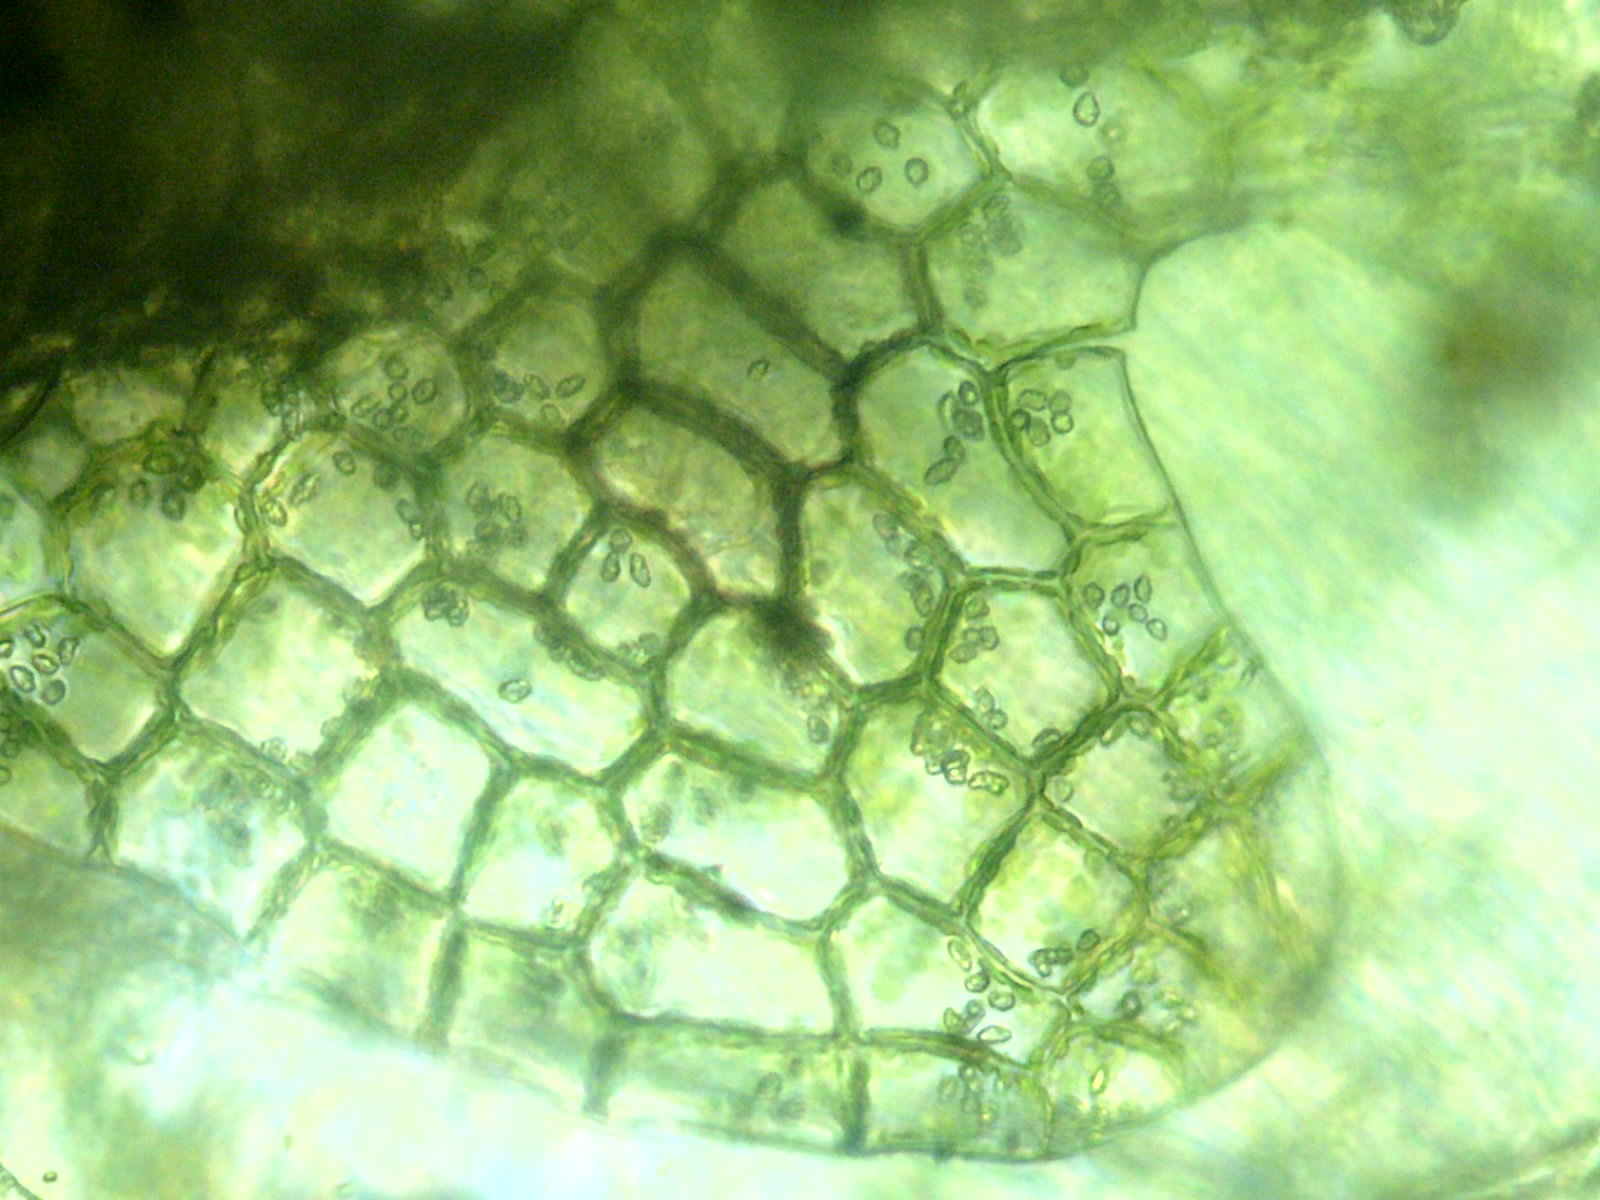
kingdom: Plantae
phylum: Marchantiophyta
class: Jungermanniopsida
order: Jungermanniales
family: Calypogeiaceae
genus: Calypogeia
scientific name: Calypogeia neogaea
